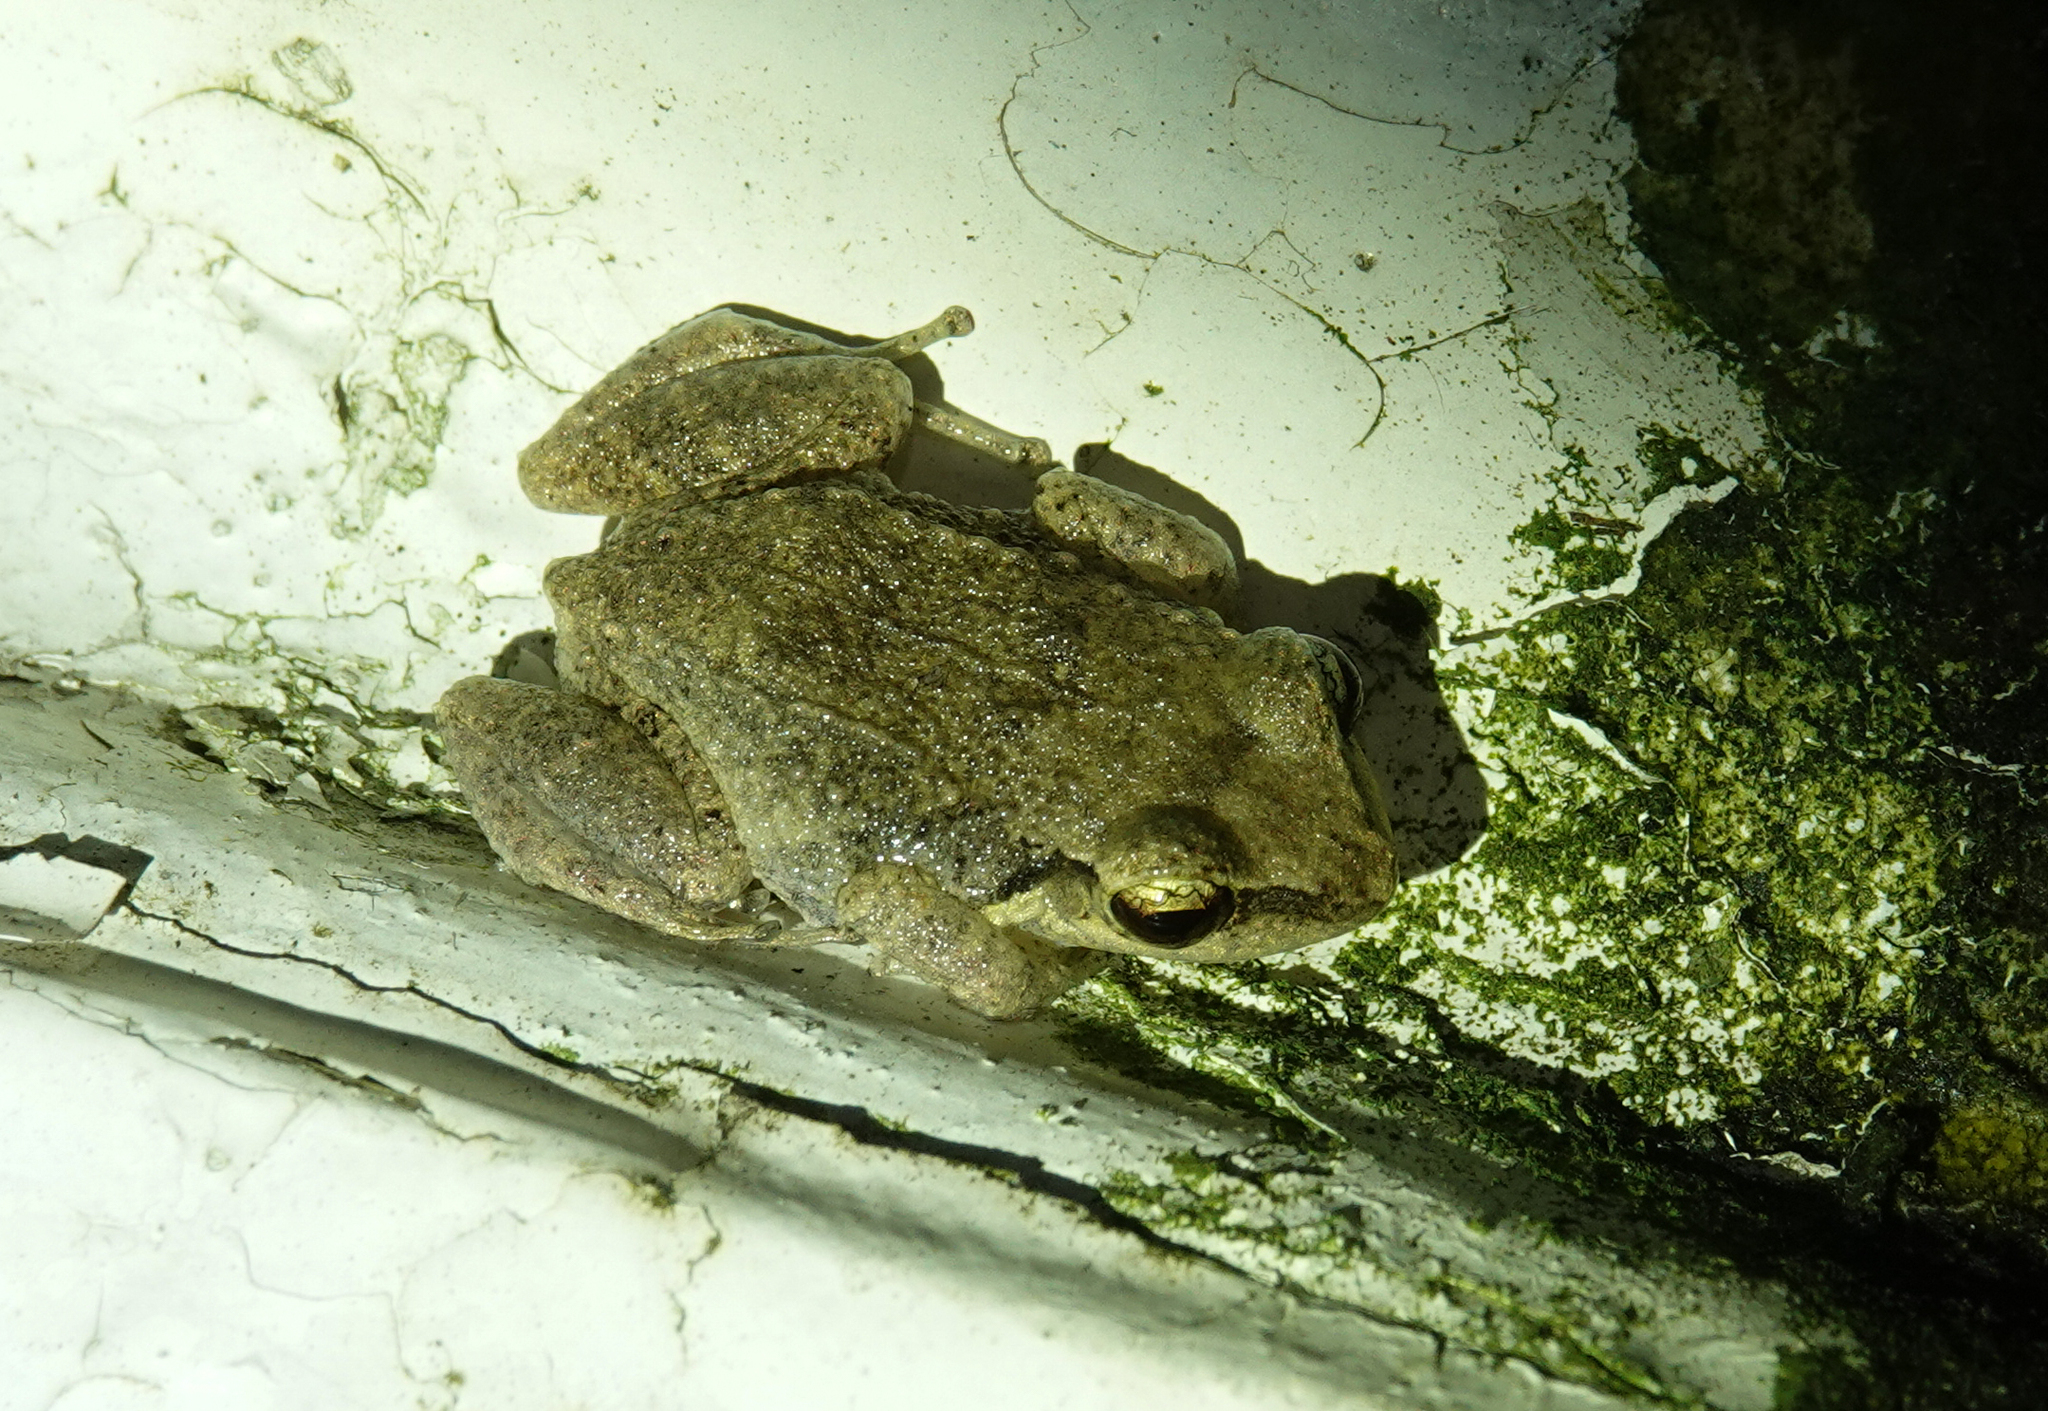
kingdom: Animalia
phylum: Chordata
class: Amphibia
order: Anura
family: Eleutherodactylidae
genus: Eleutherodactylus
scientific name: Eleutherodactylus johnstonei
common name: Johnstone's robber frog
